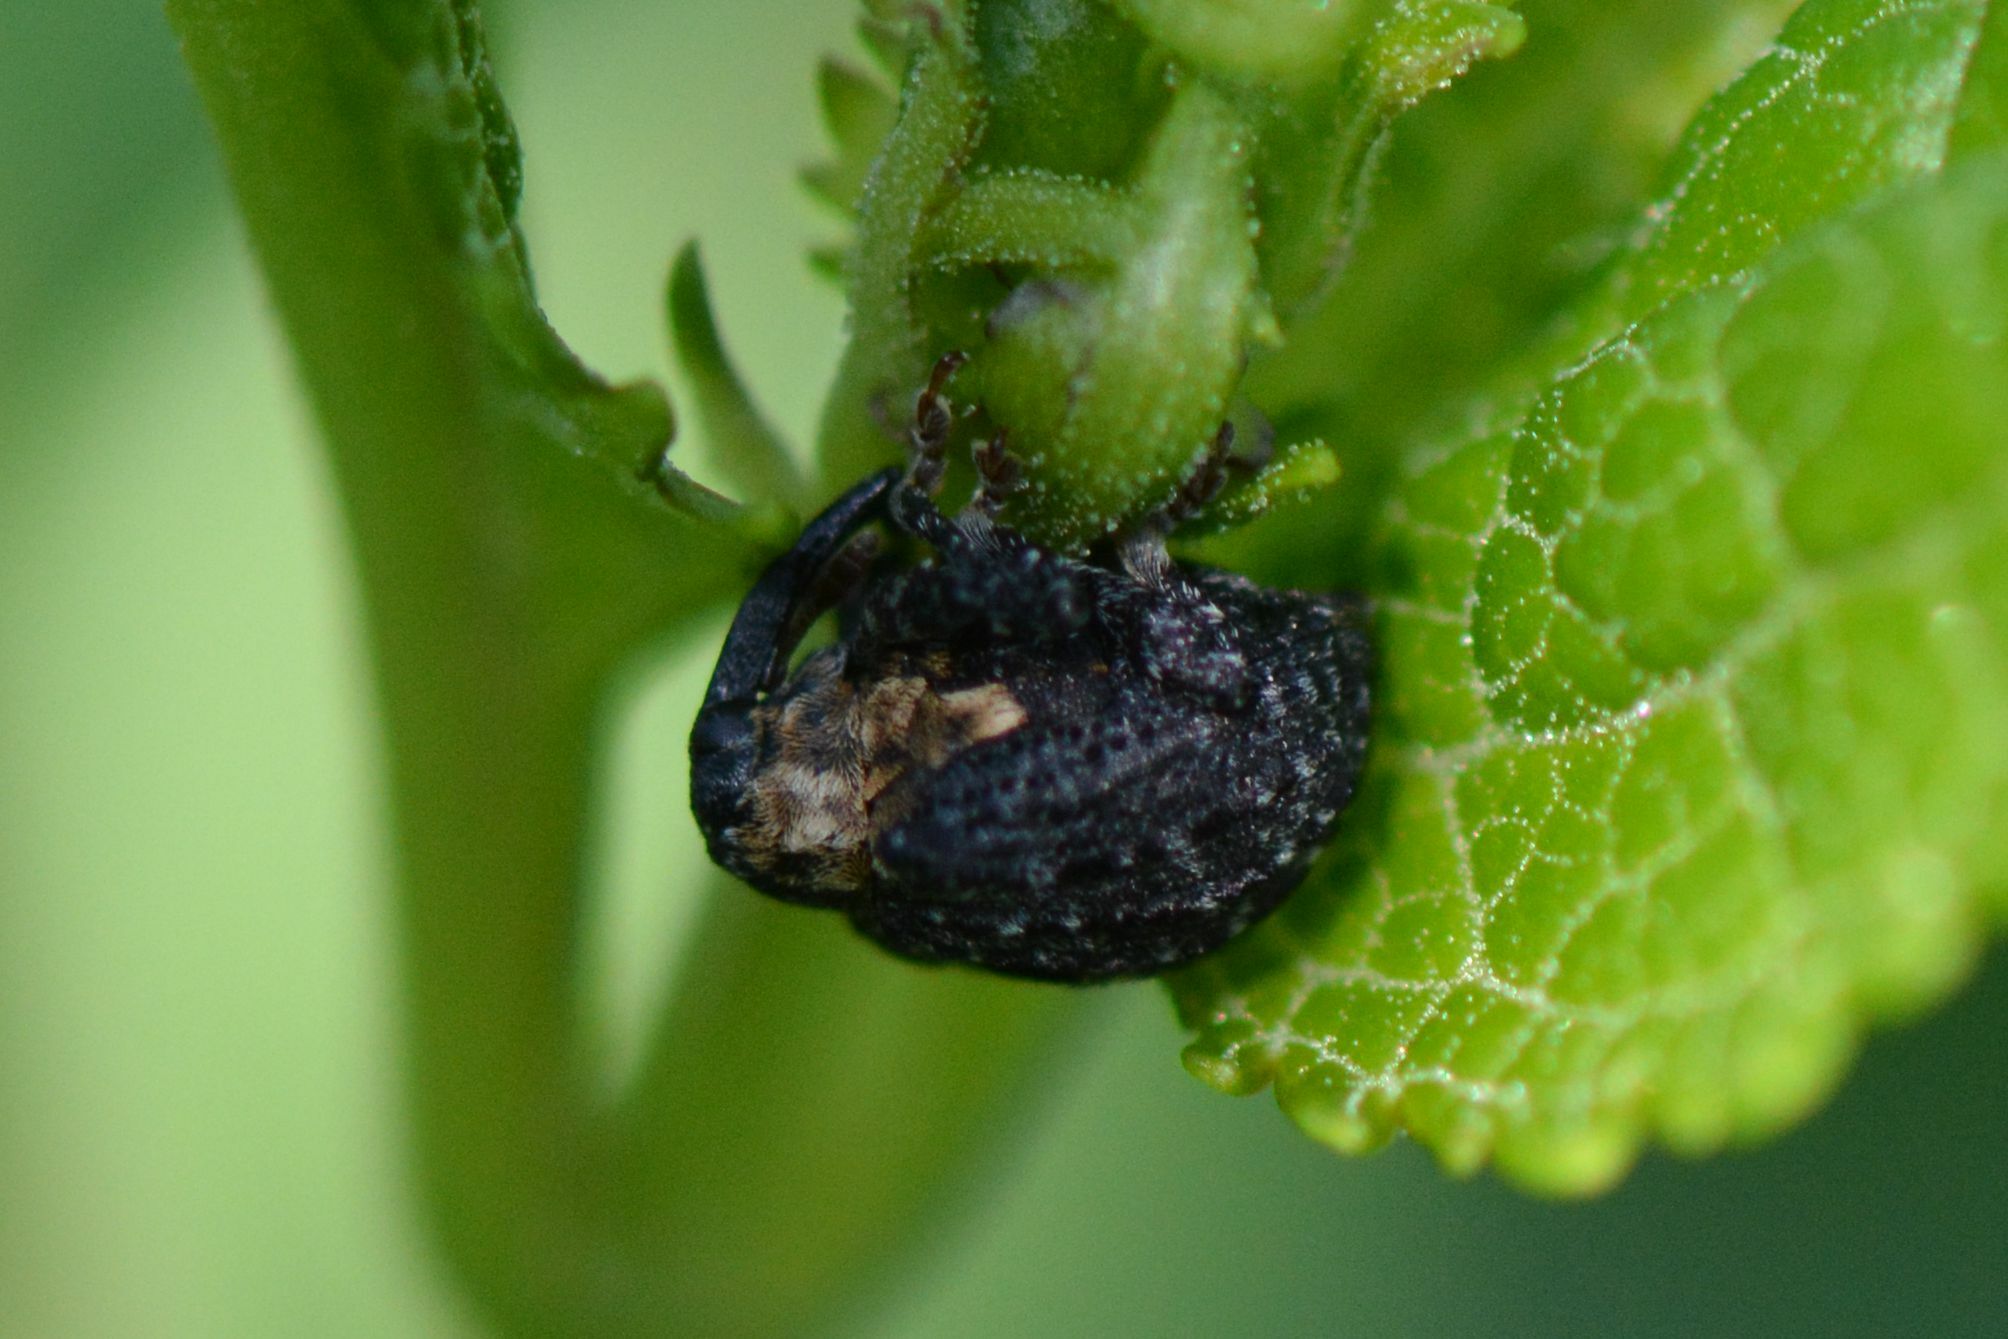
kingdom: Animalia
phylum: Arthropoda
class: Insecta
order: Coleoptera
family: Curculionidae
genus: Cionus
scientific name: Cionus tuberculosus
